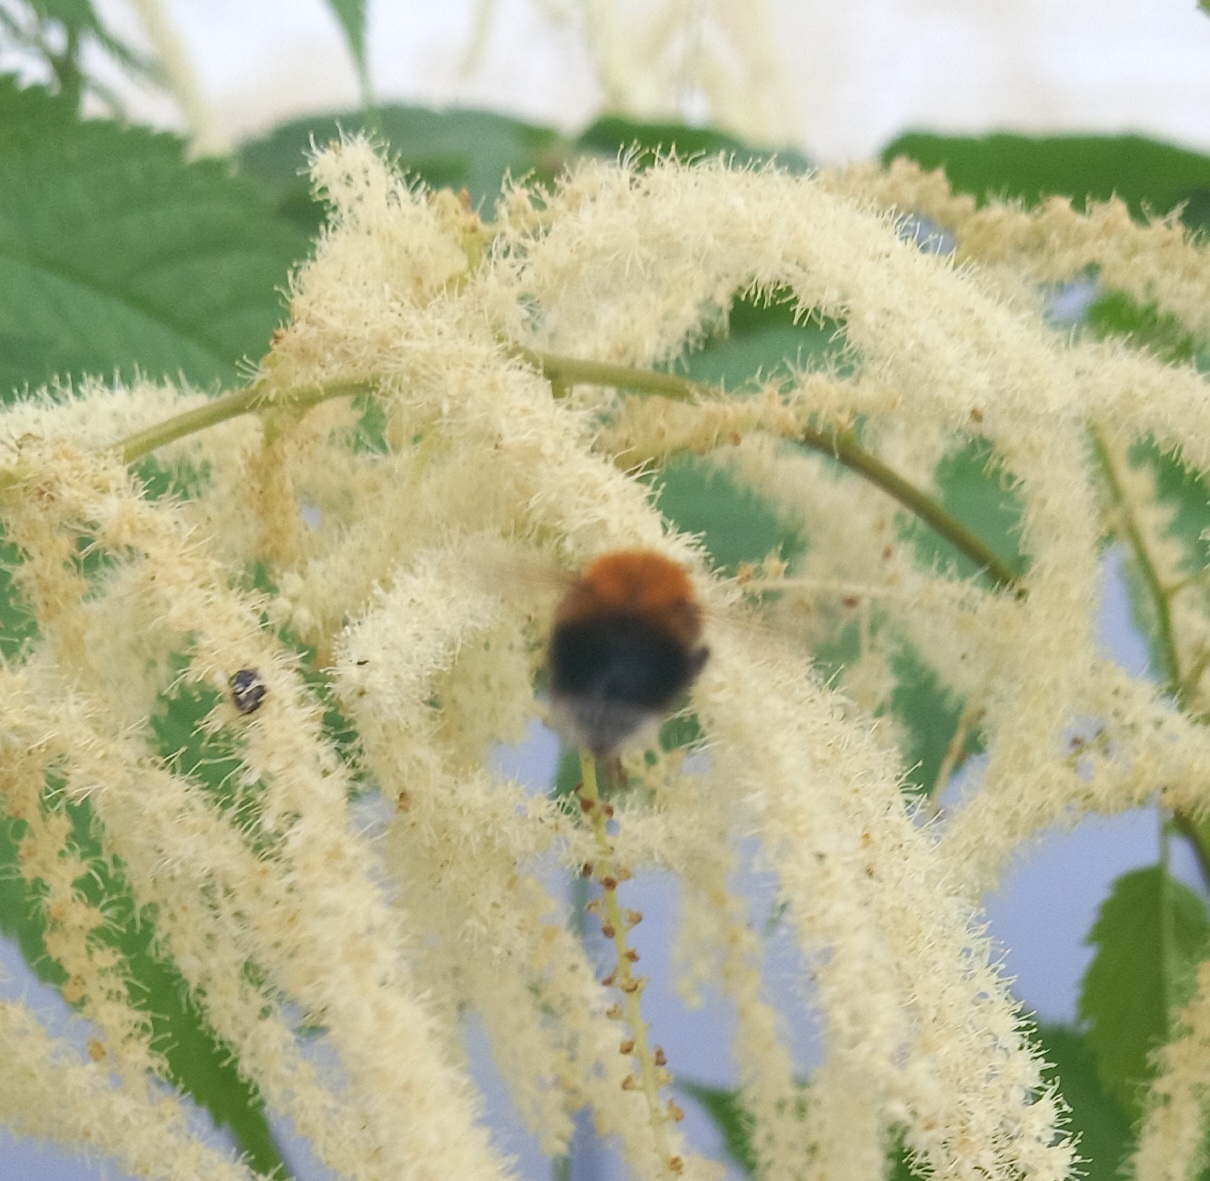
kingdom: Animalia
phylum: Arthropoda
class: Insecta
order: Hymenoptera
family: Apidae
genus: Bombus
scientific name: Bombus hypnorum
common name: New garden bumblebee
